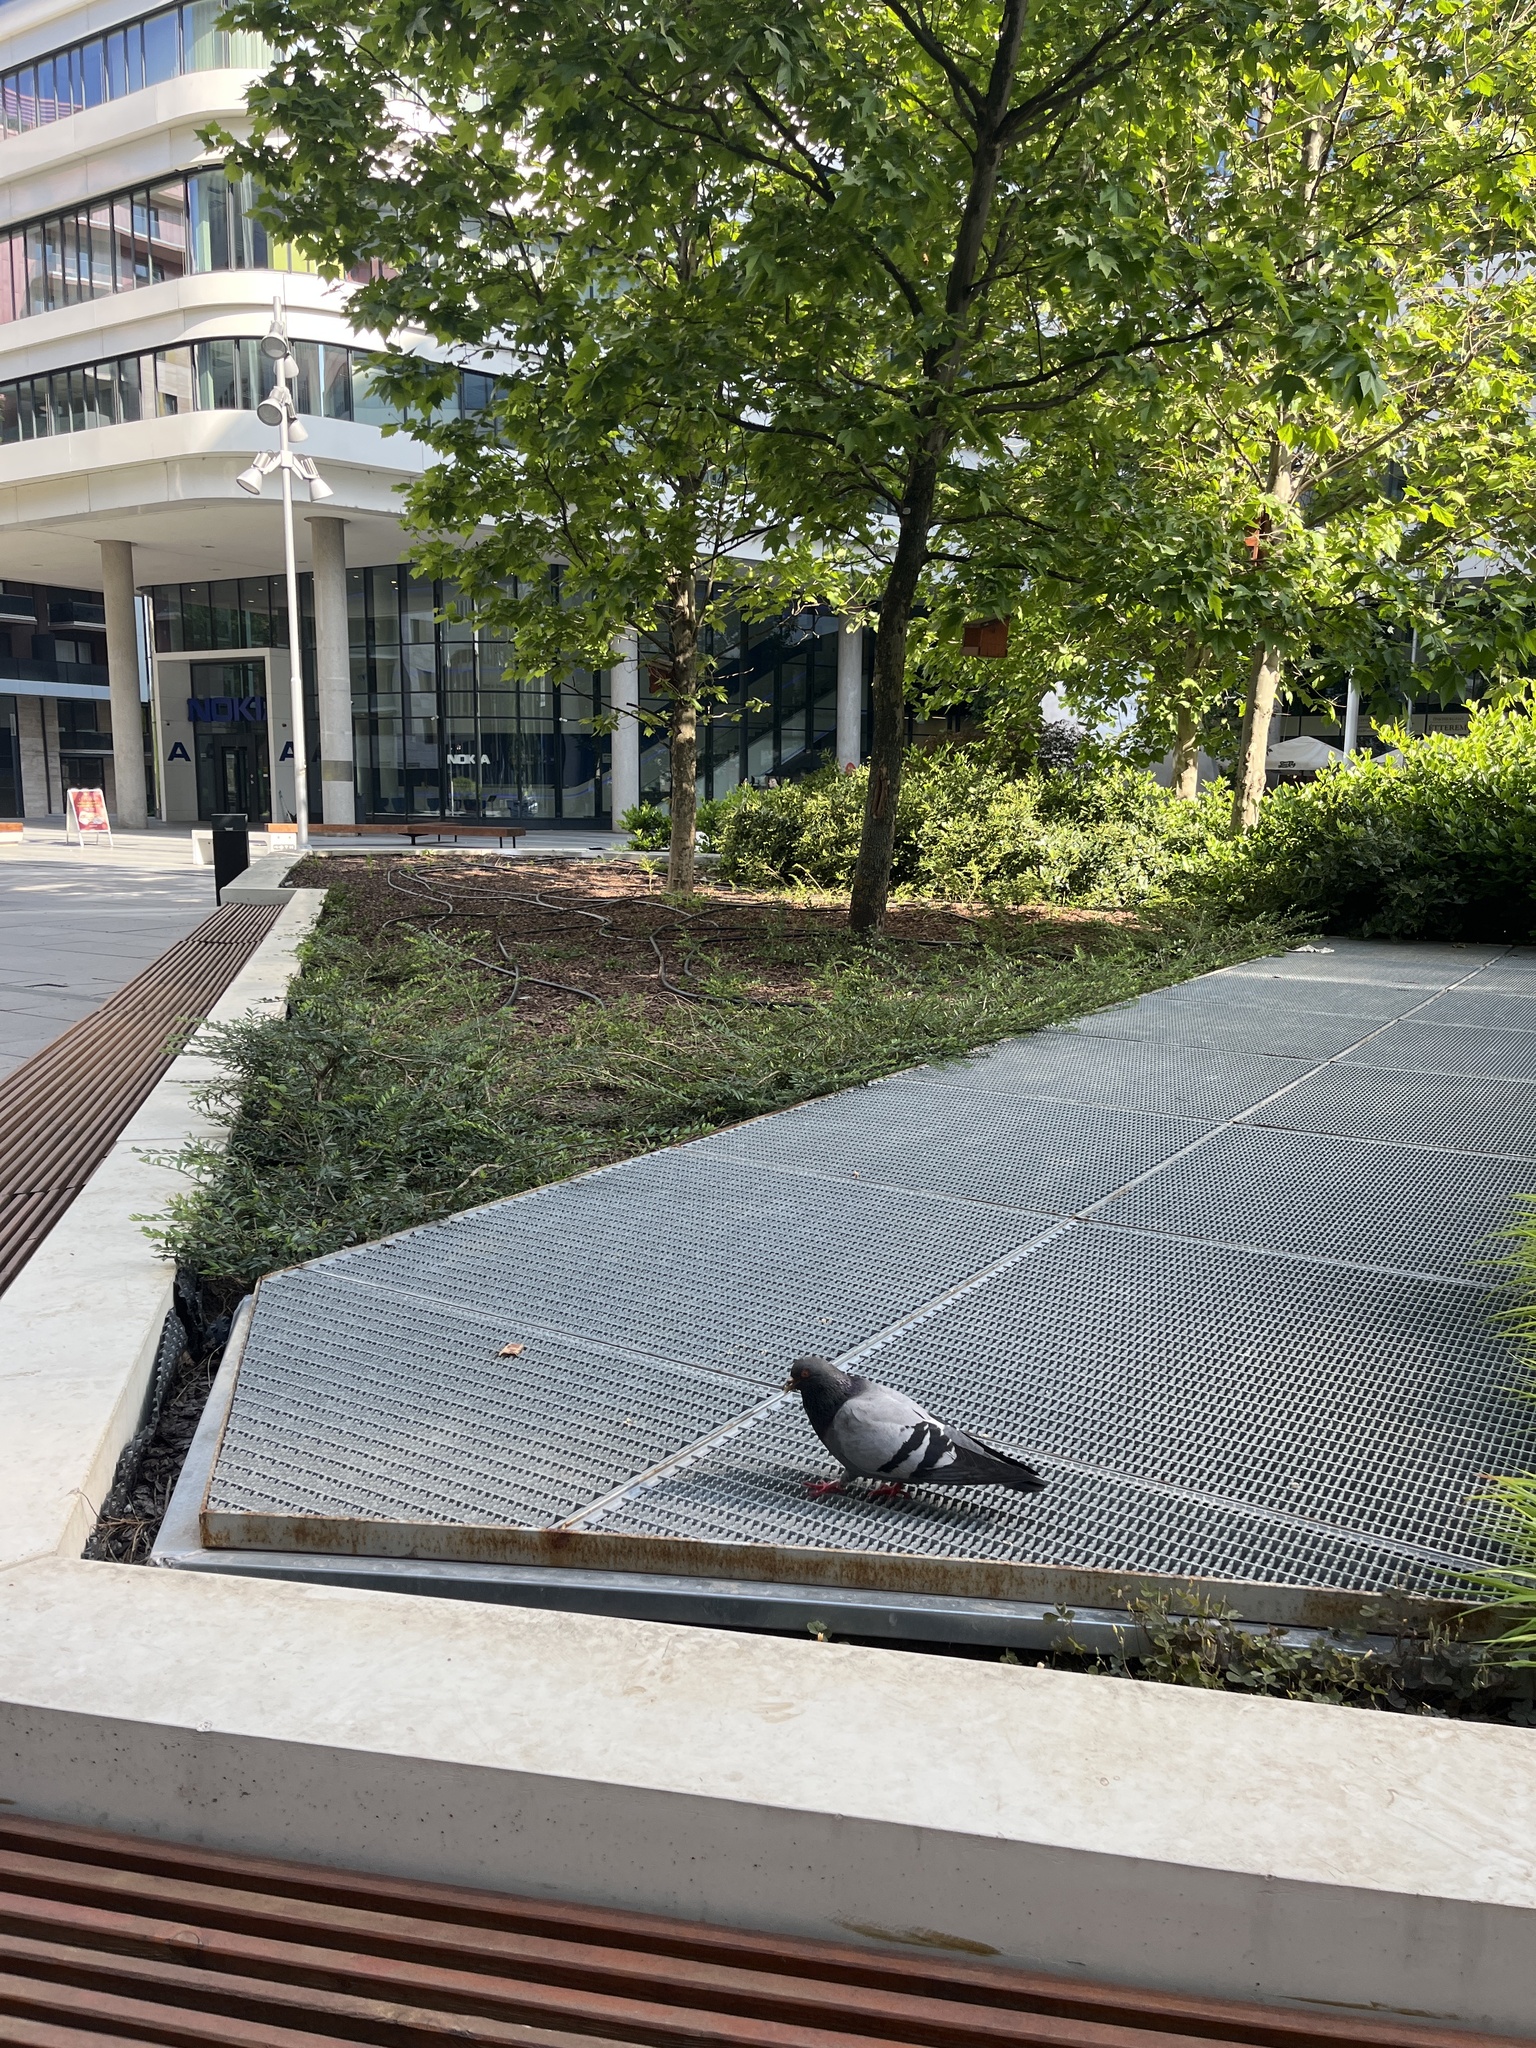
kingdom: Animalia
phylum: Chordata
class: Aves
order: Columbiformes
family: Columbidae
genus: Columba
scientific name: Columba livia
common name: Rock pigeon
